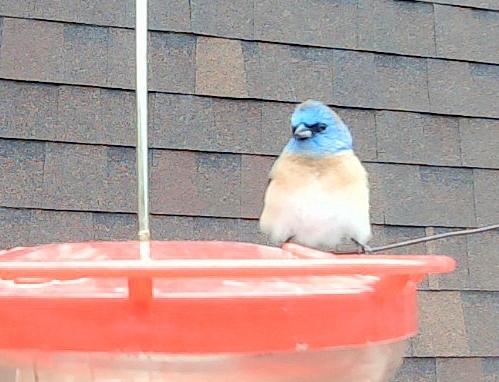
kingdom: Animalia
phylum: Chordata
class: Aves
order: Passeriformes
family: Cardinalidae
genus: Passerina
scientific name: Passerina amoena
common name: Lazuli bunting
